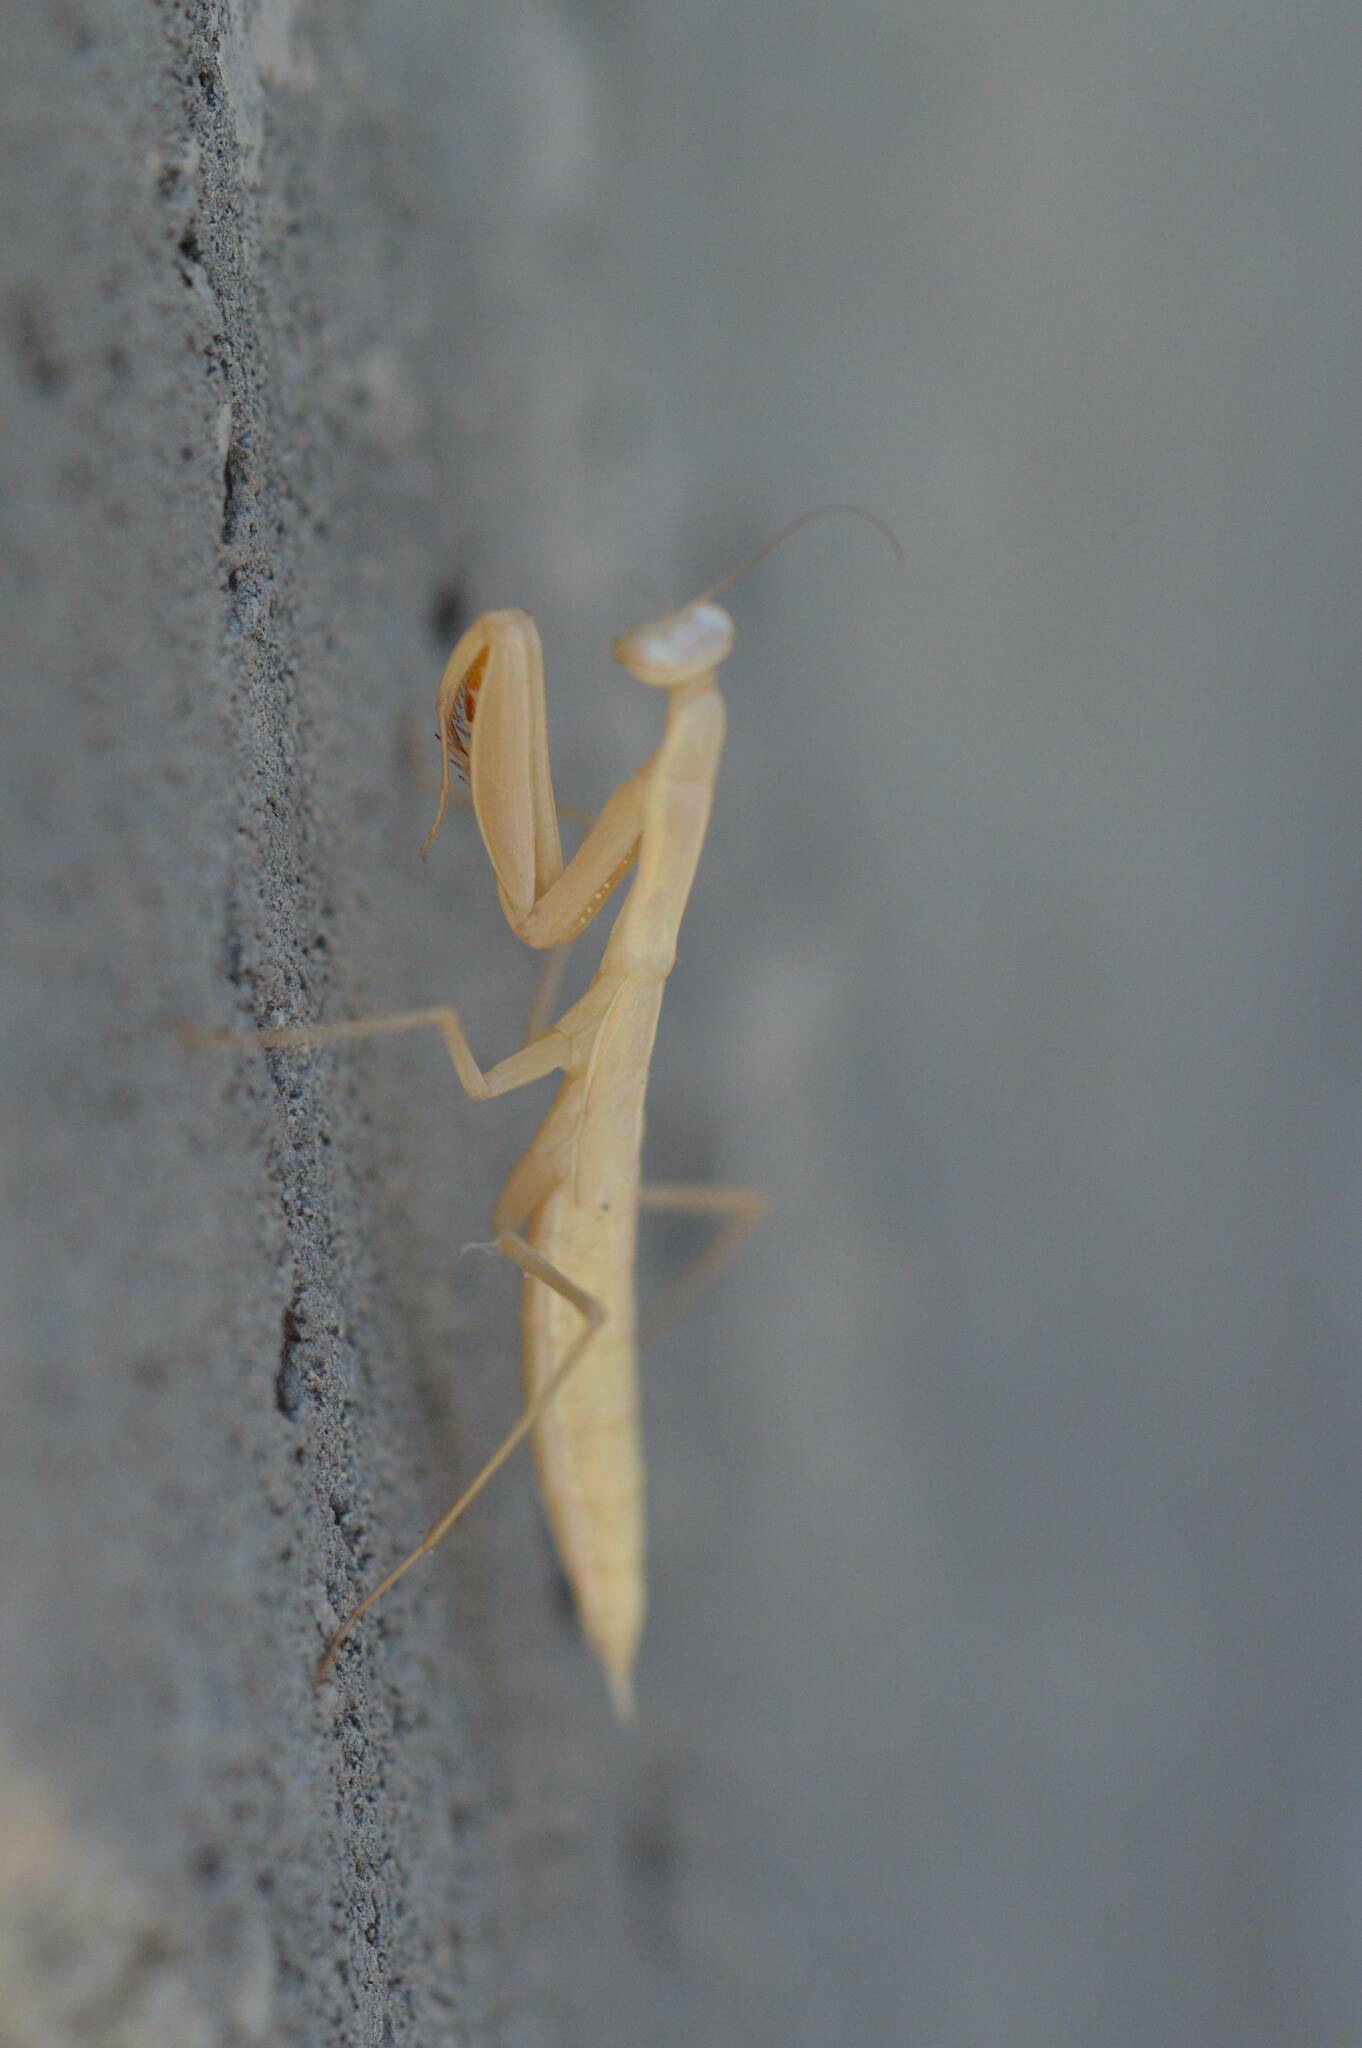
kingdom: Animalia
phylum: Arthropoda
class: Insecta
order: Mantodea
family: Mantidae
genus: Mantis
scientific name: Mantis religiosa
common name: Praying mantis
